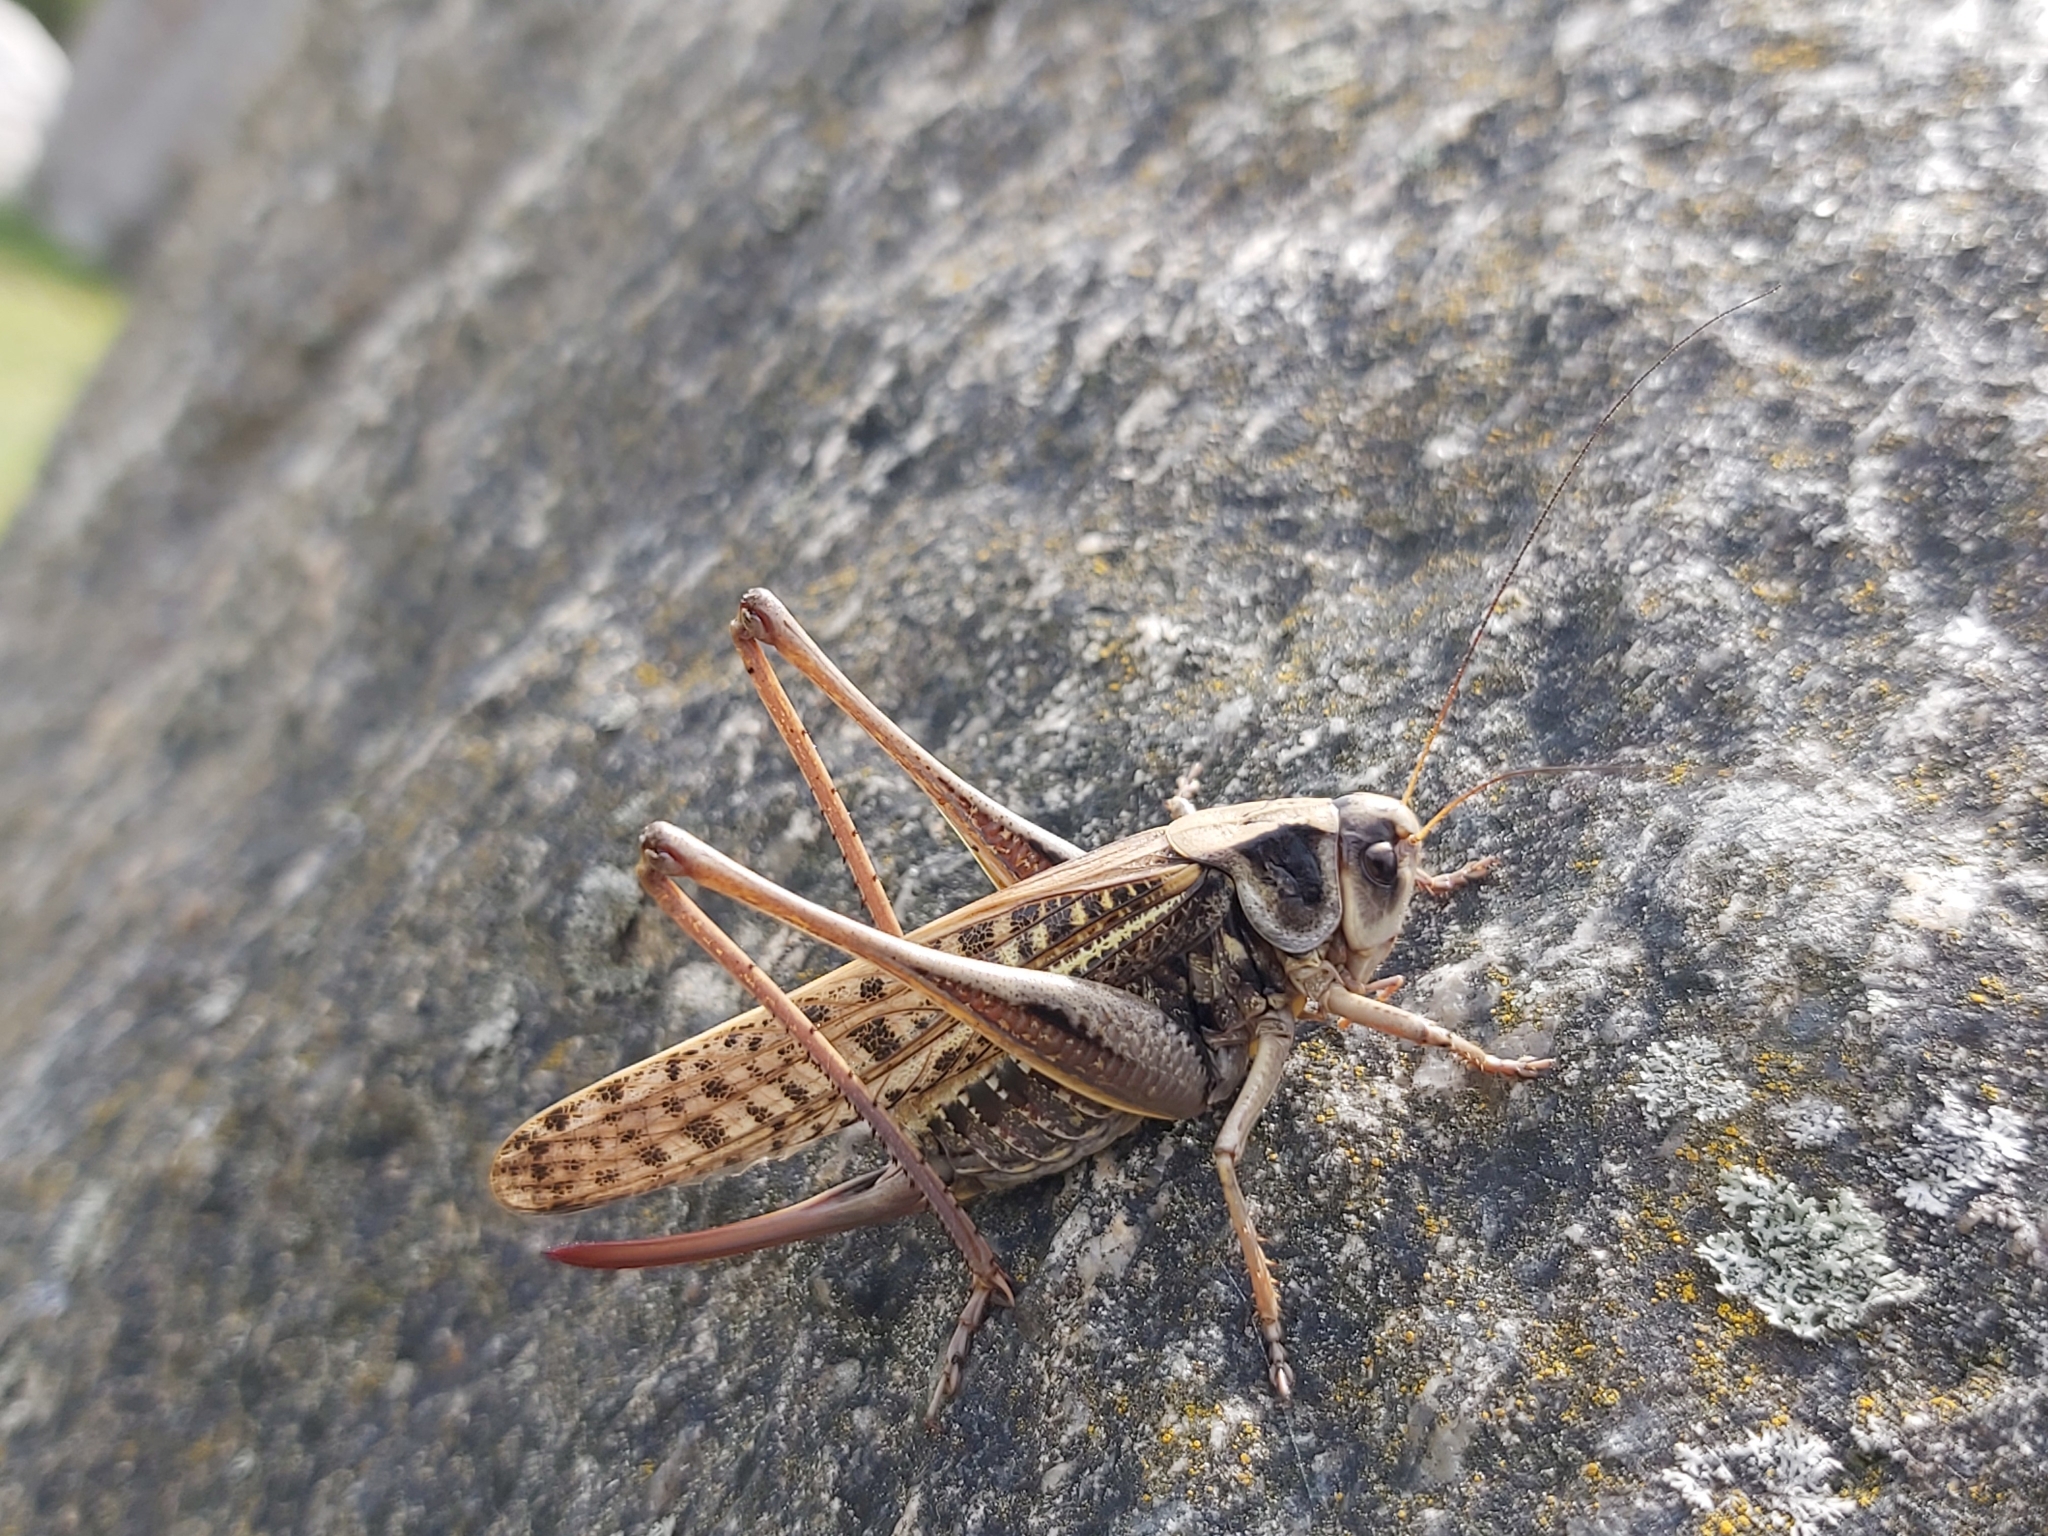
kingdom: Animalia
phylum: Arthropoda
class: Insecta
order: Orthoptera
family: Tettigoniidae
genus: Decticus
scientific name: Decticus verrucivorus
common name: Wart-biter
